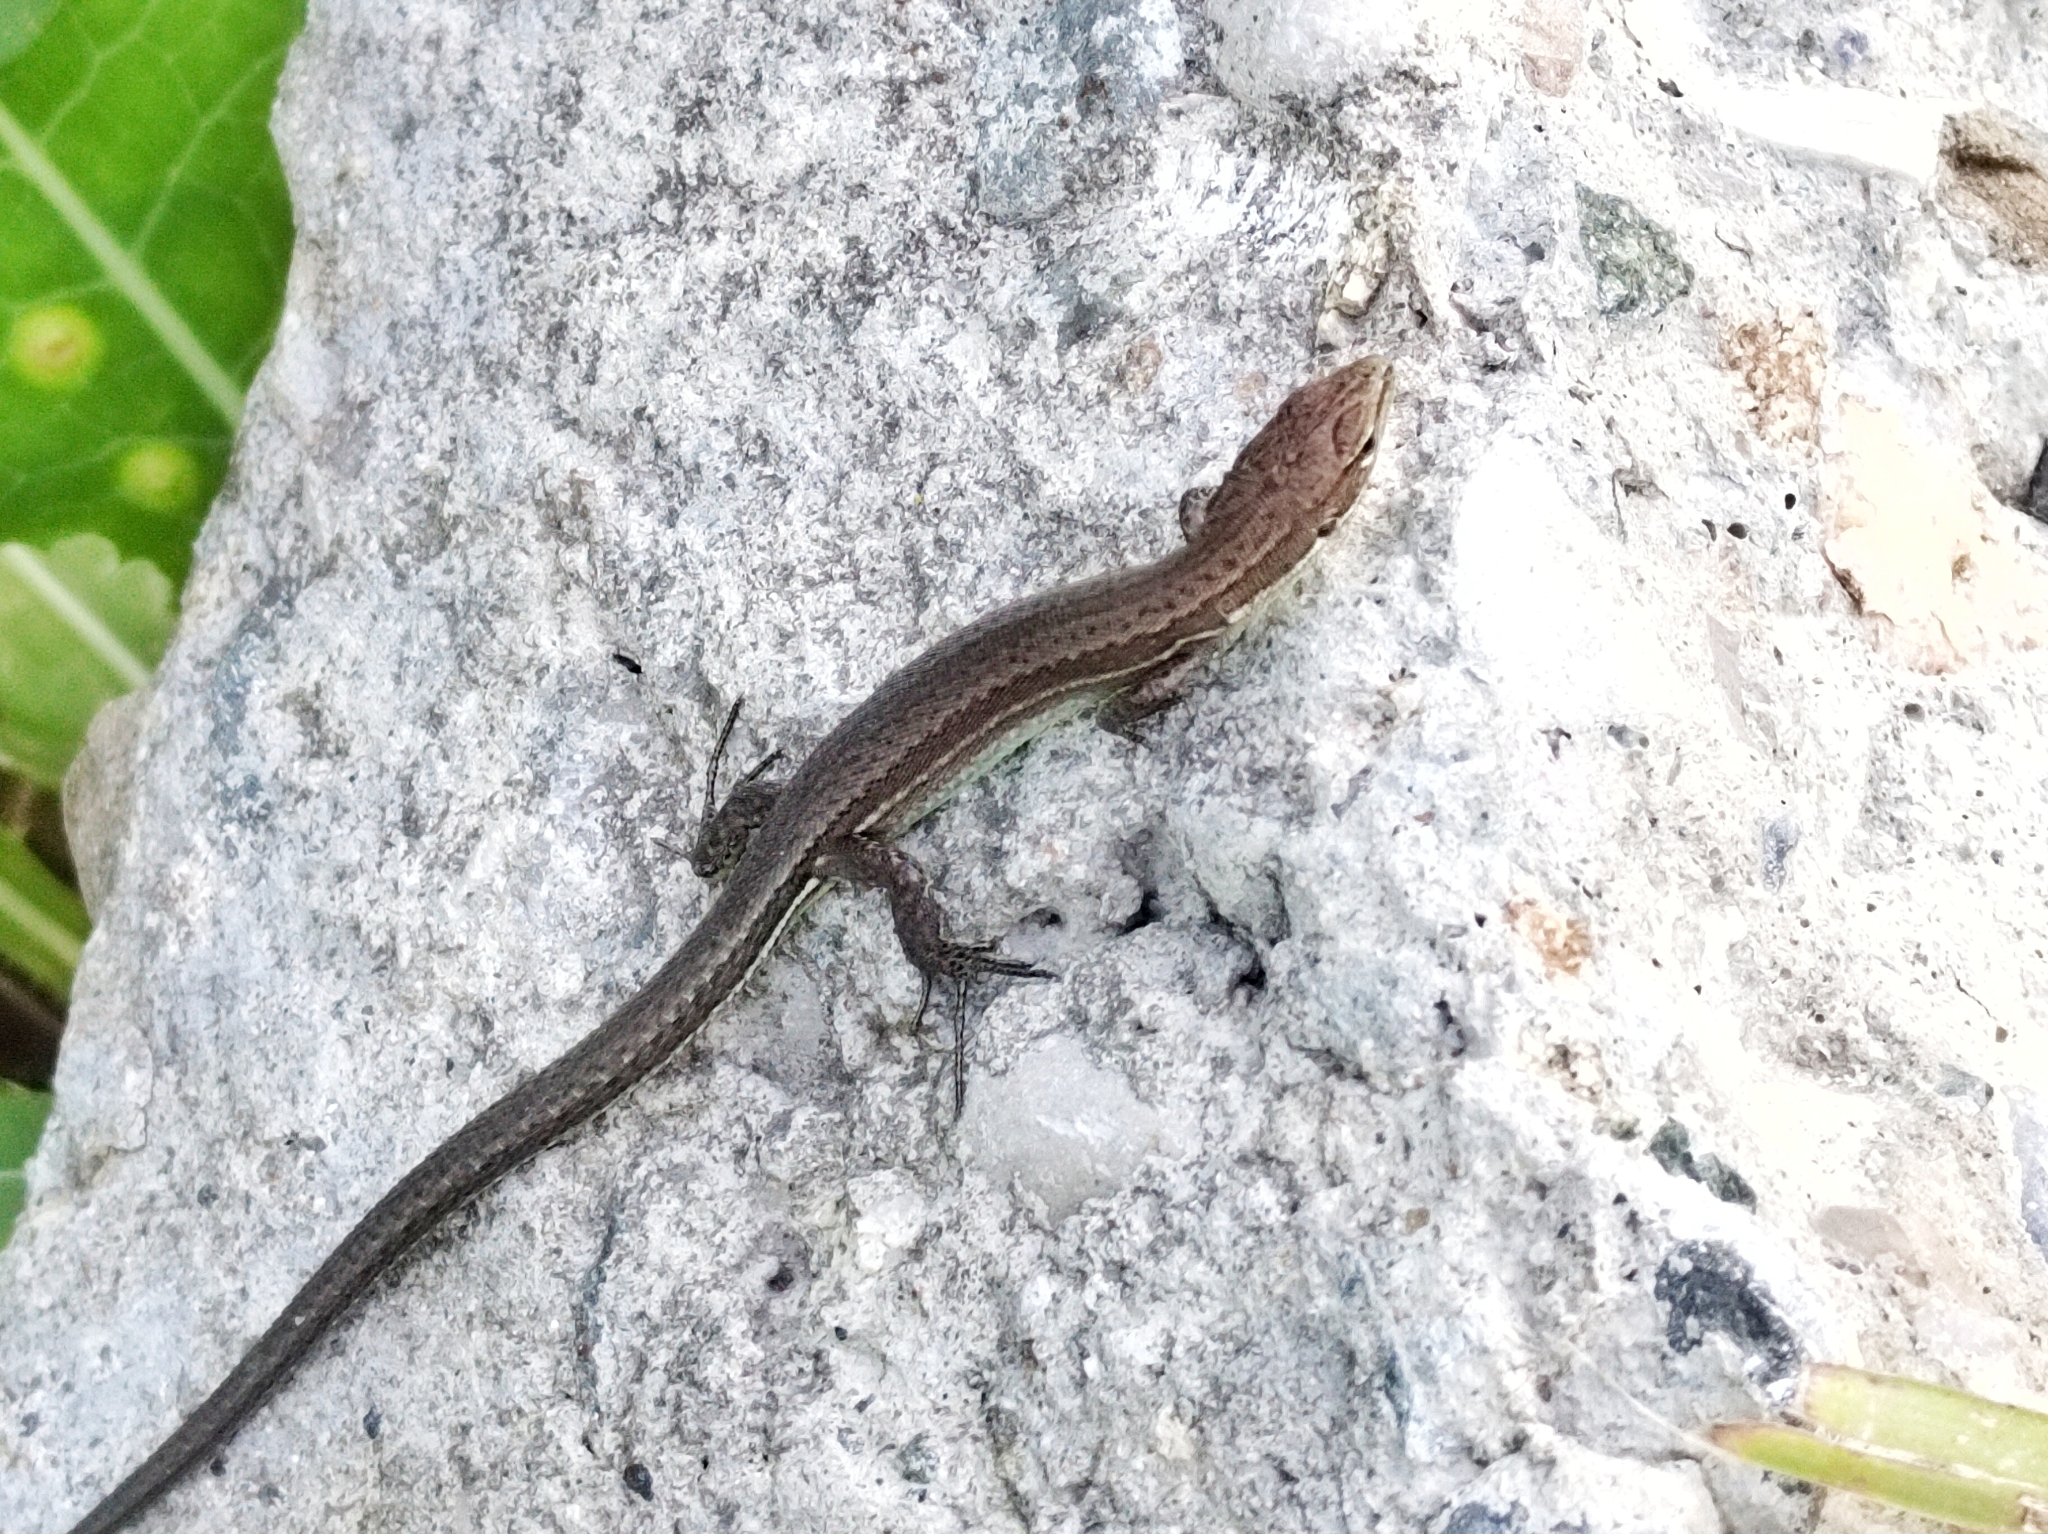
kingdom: Animalia
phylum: Chordata
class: Squamata
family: Lacertidae
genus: Darevskia
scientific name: Darevskia praticola
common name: Meadow lizard
